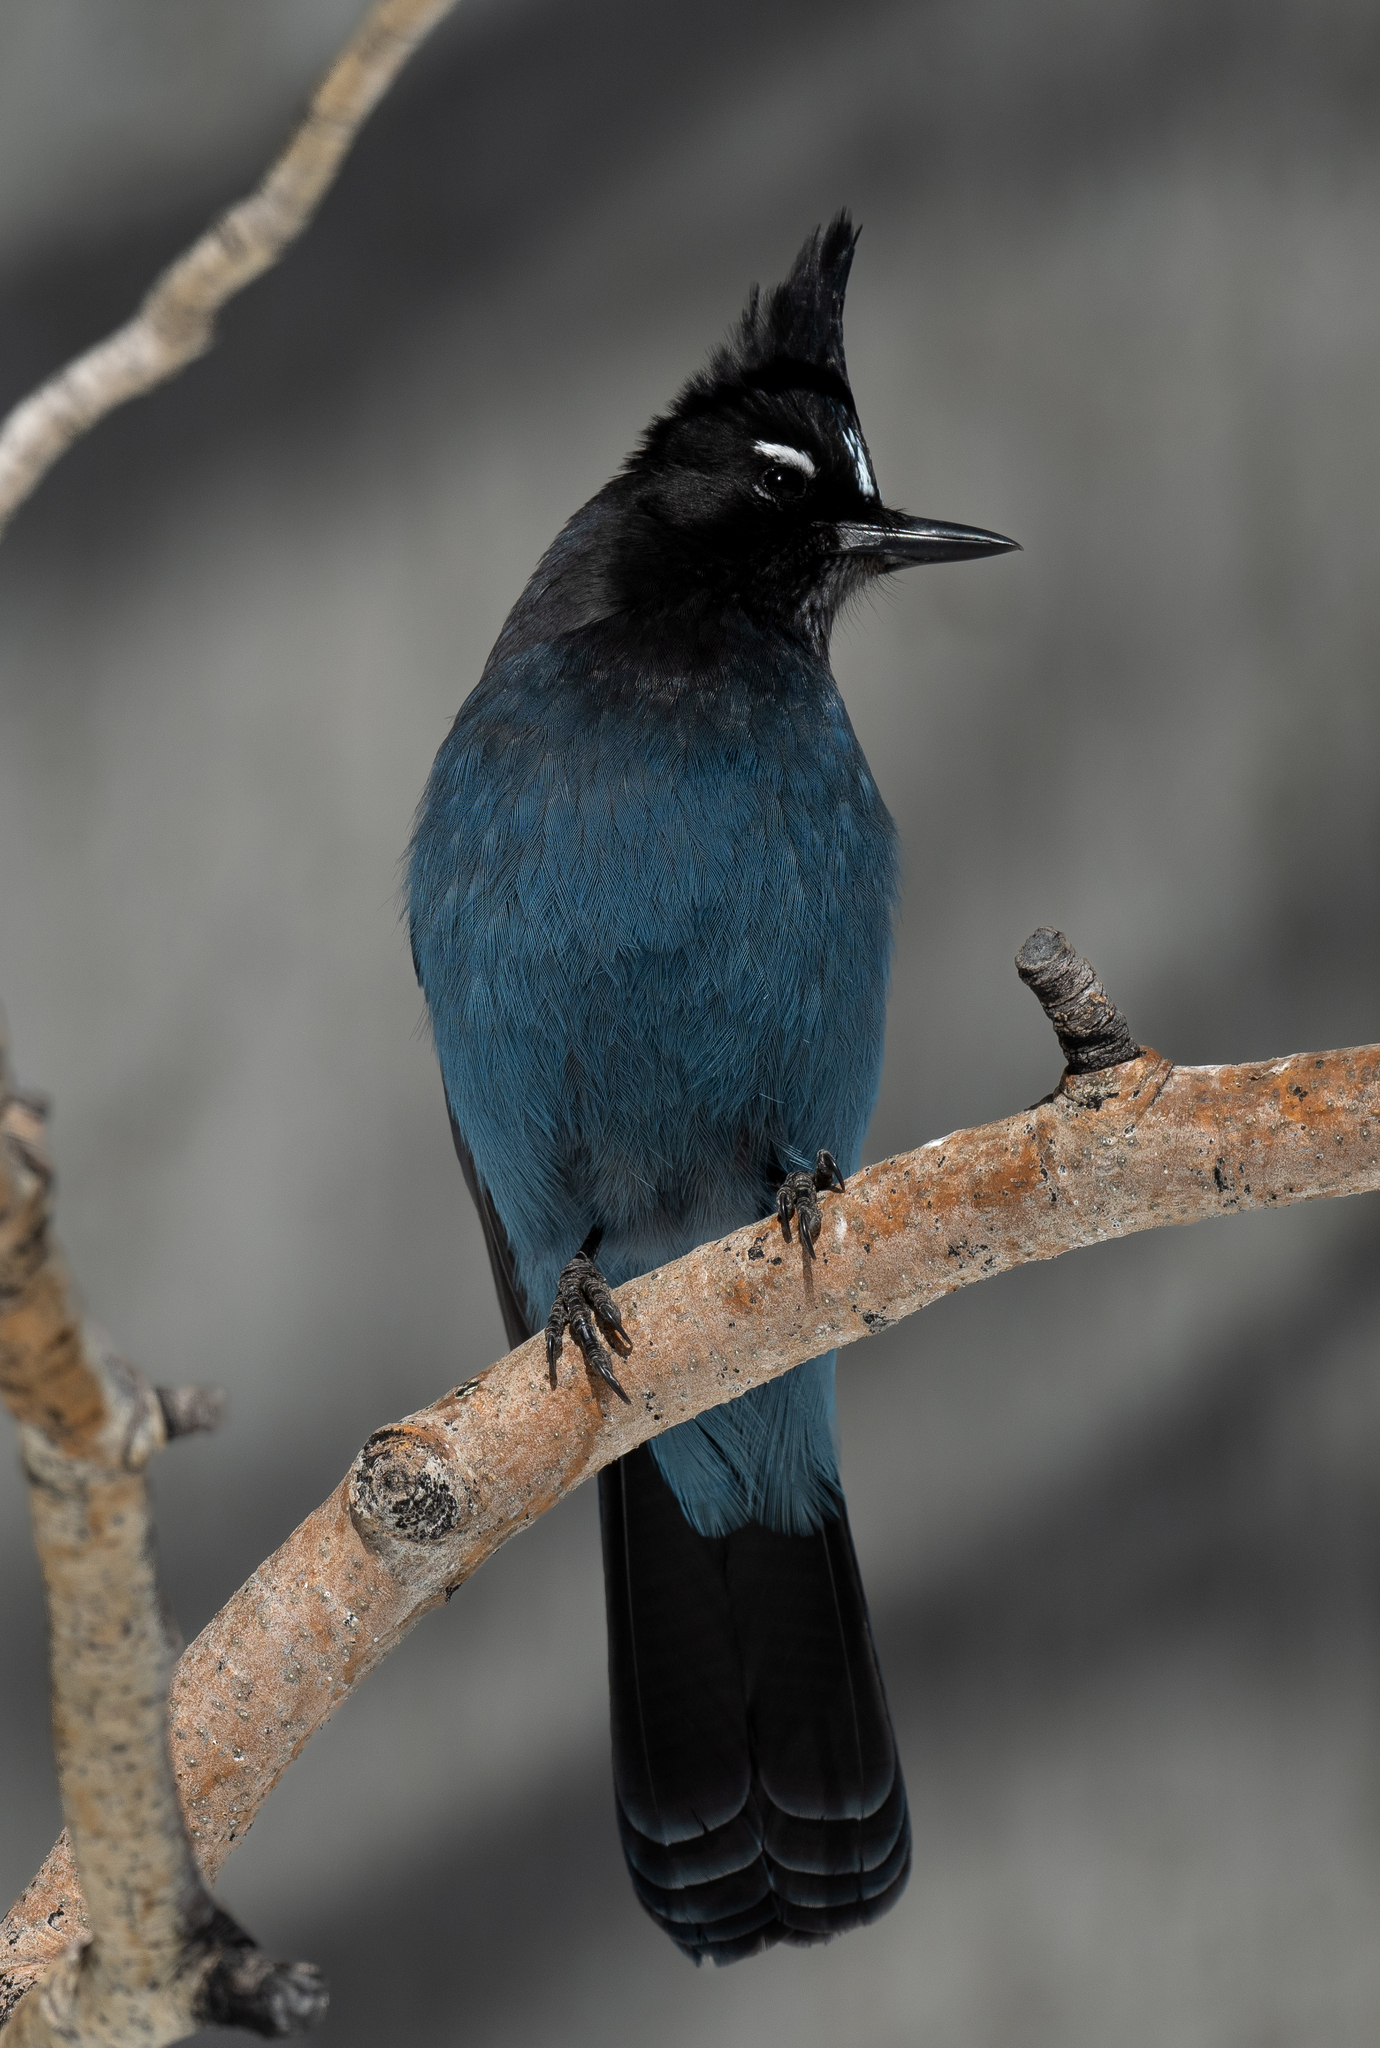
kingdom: Animalia
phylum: Chordata
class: Aves
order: Passeriformes
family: Corvidae
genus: Cyanocitta
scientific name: Cyanocitta stelleri
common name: Steller's jay
